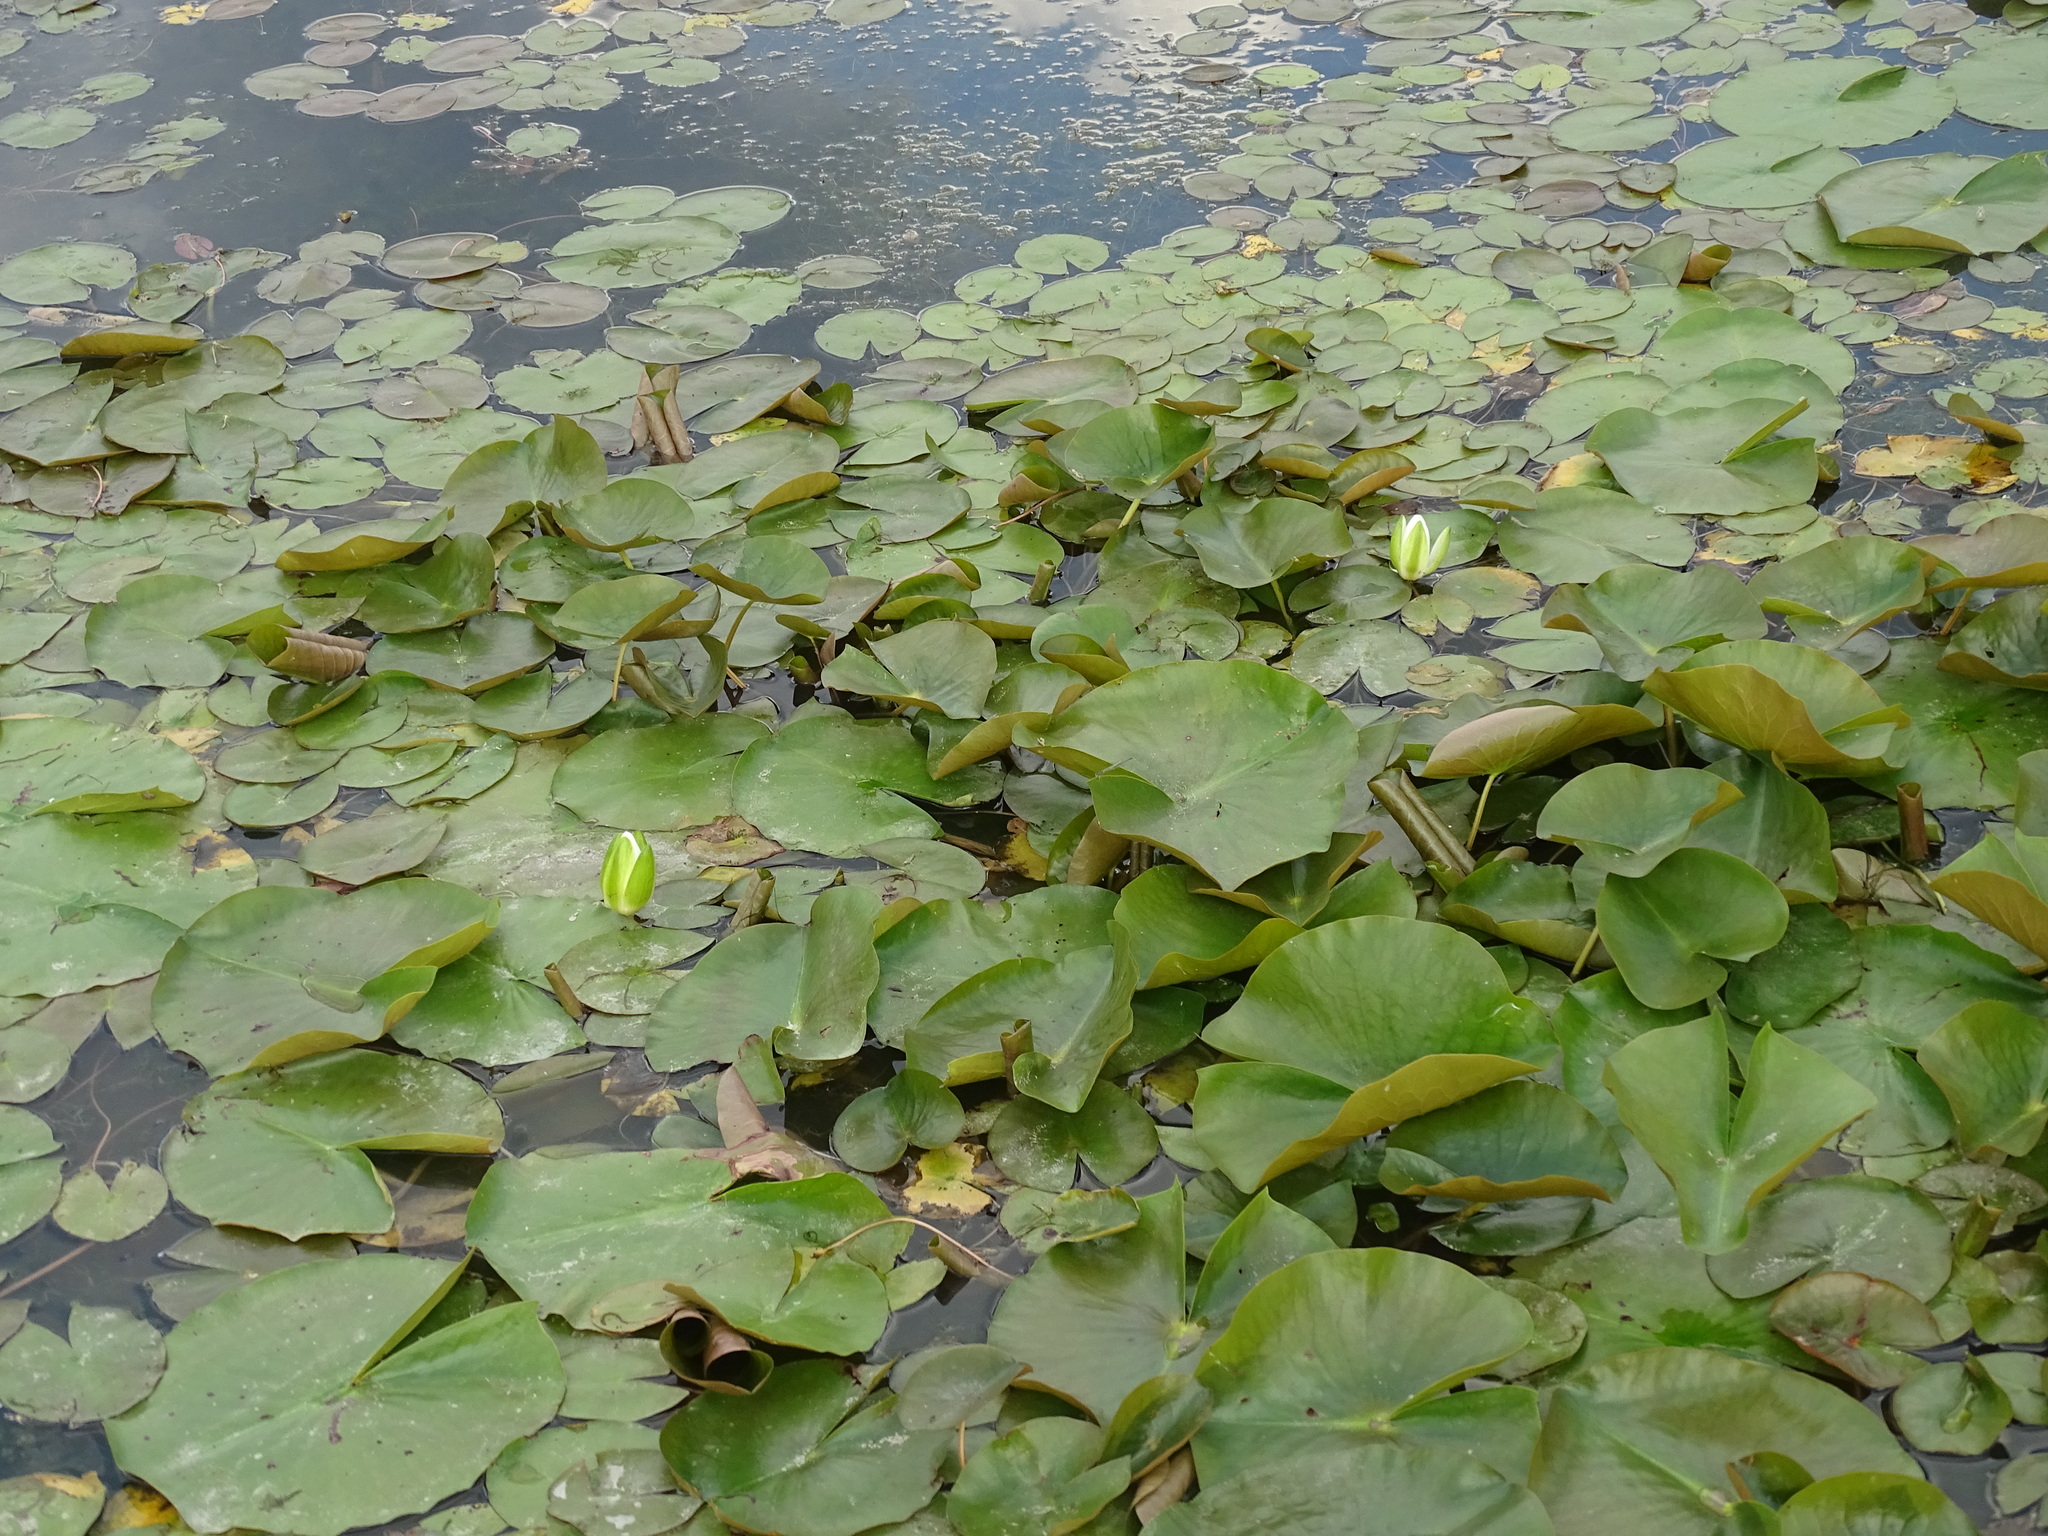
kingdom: Plantae
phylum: Tracheophyta
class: Magnoliopsida
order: Nymphaeales
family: Nymphaeaceae
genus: Nymphaea
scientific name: Nymphaea odorata
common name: Fragrant water-lily
